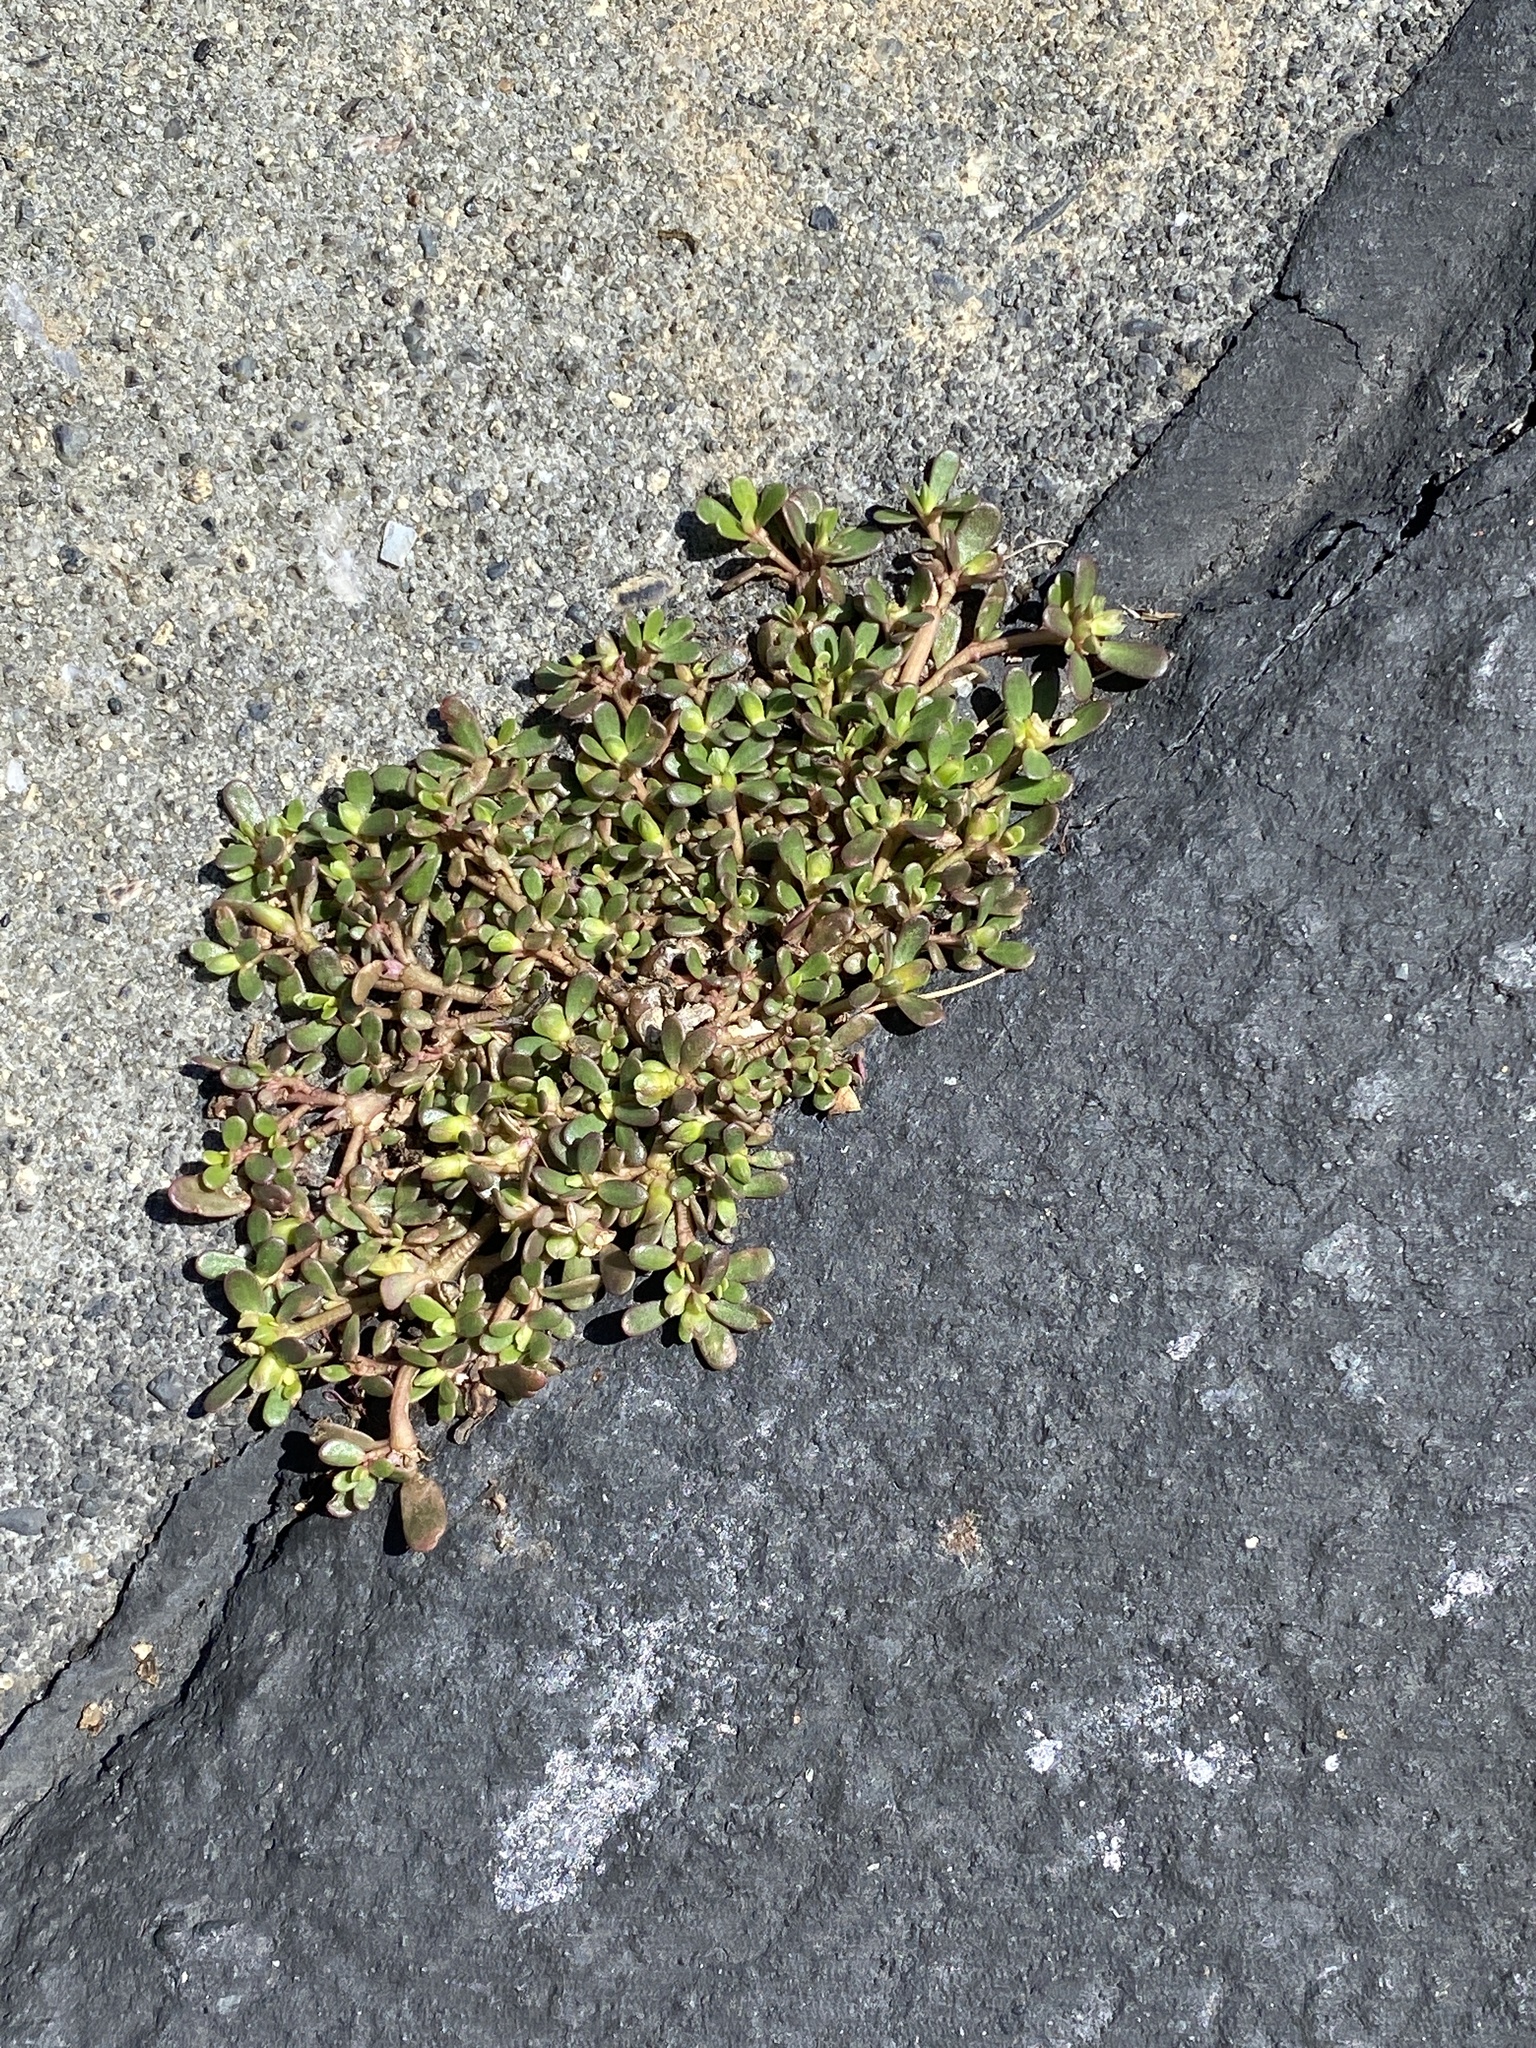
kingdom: Plantae
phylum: Tracheophyta
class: Magnoliopsida
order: Caryophyllales
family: Portulacaceae
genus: Portulaca
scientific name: Portulaca oleracea
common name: Common purslane
